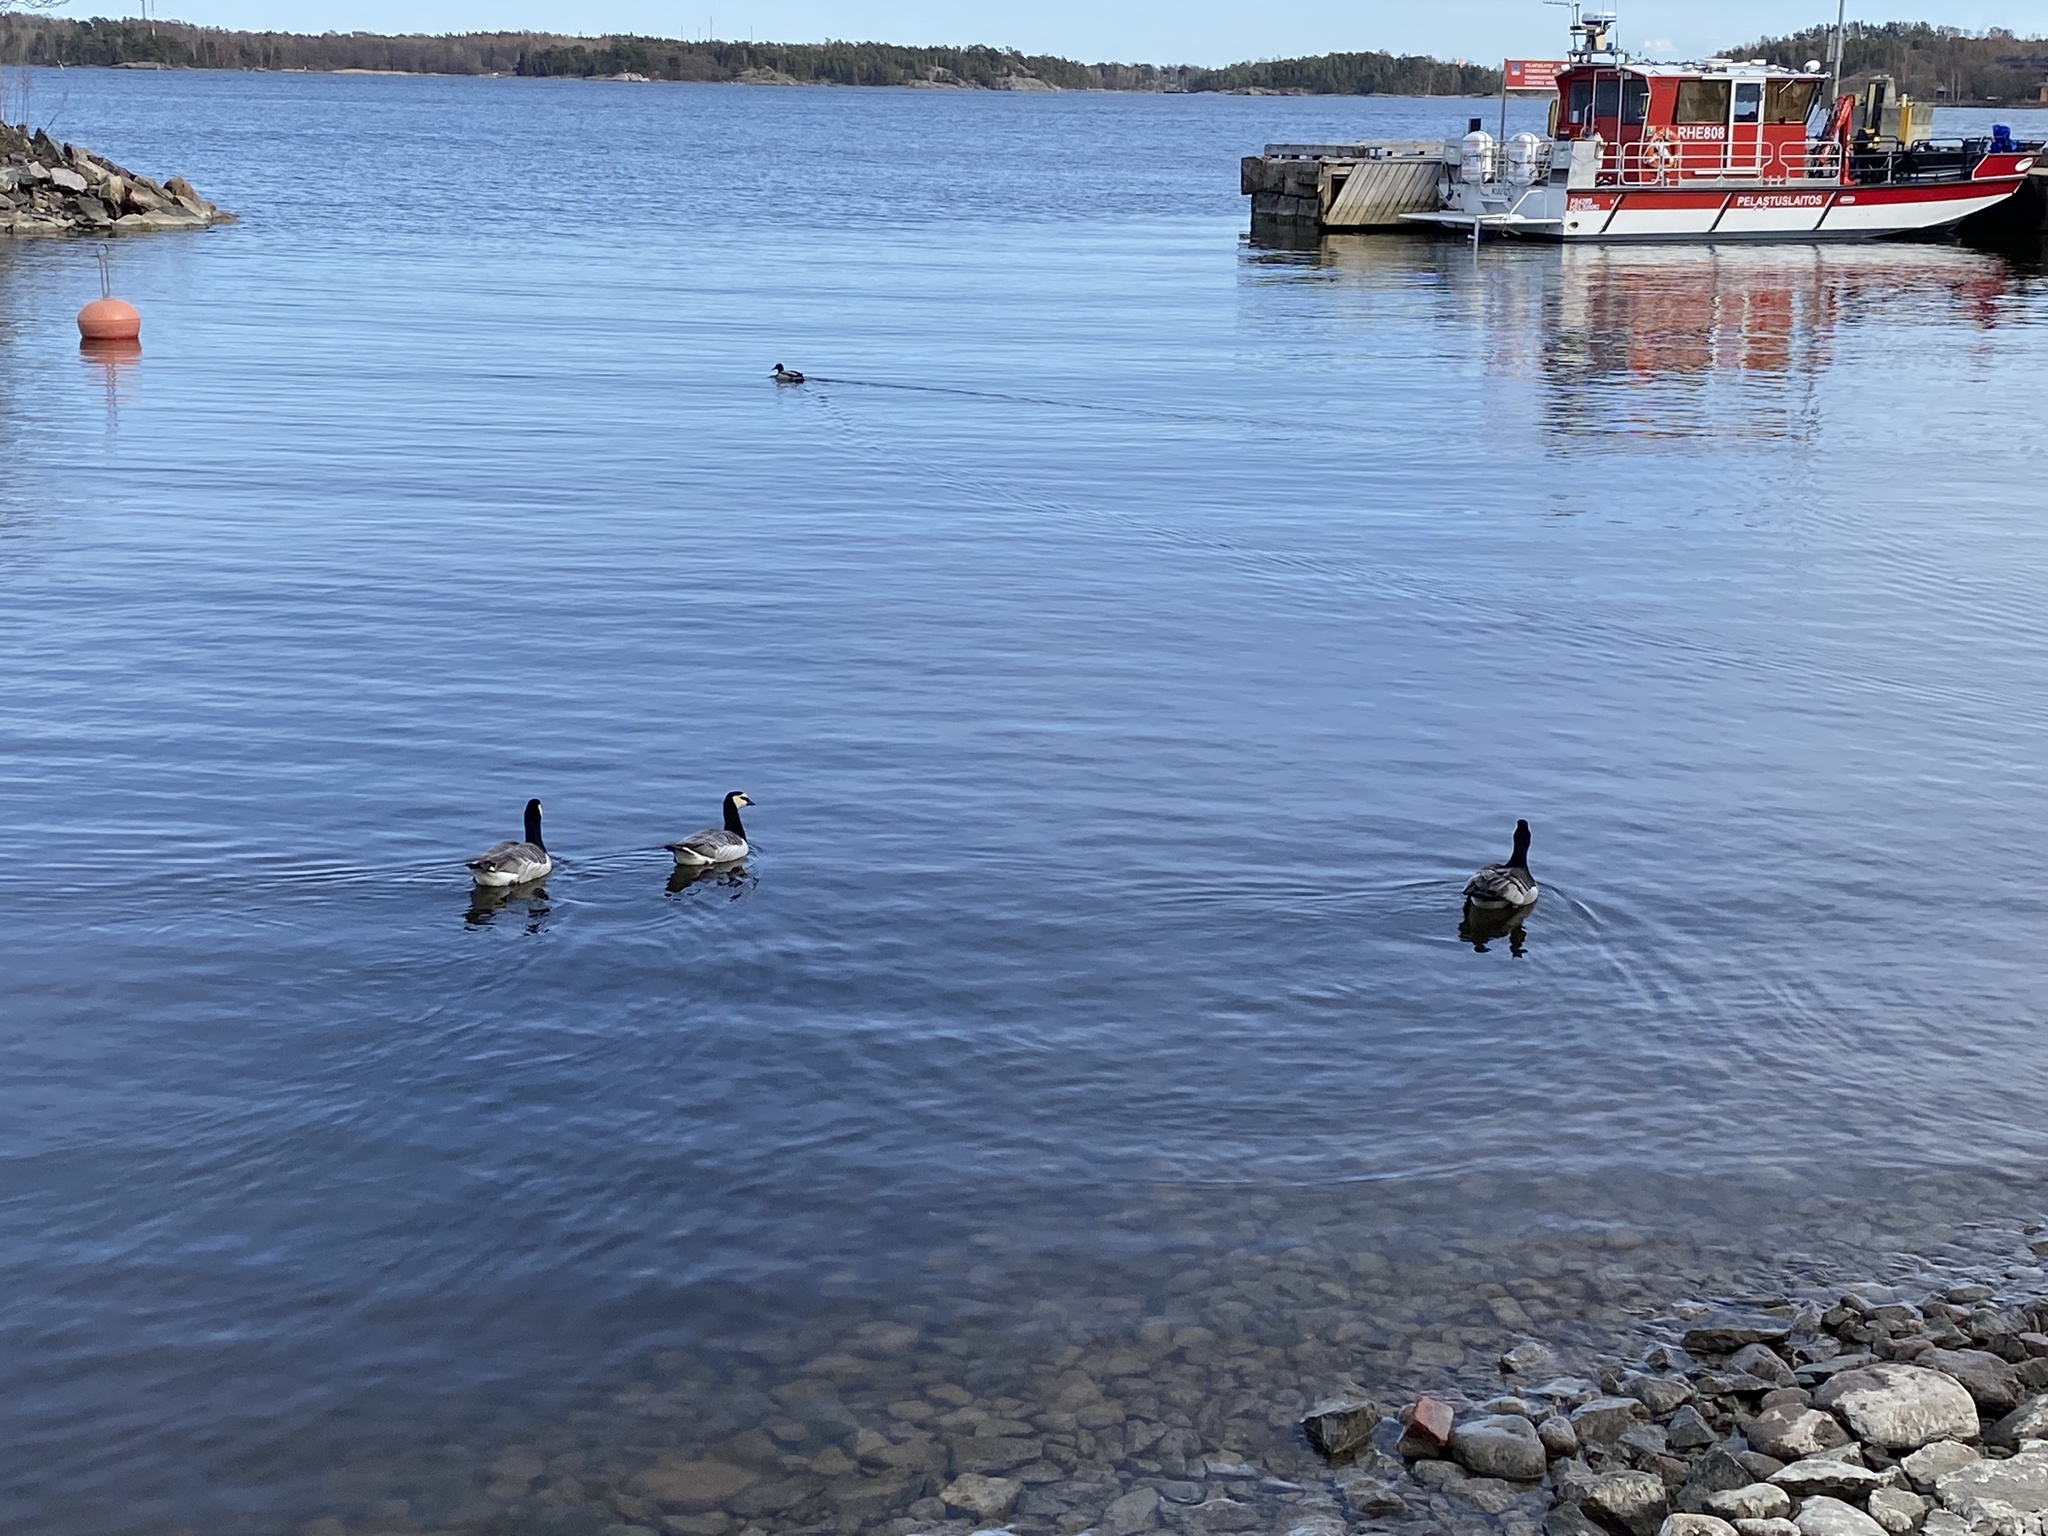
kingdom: Animalia
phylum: Chordata
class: Aves
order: Anseriformes
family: Anatidae
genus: Branta
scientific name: Branta leucopsis
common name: Barnacle goose
